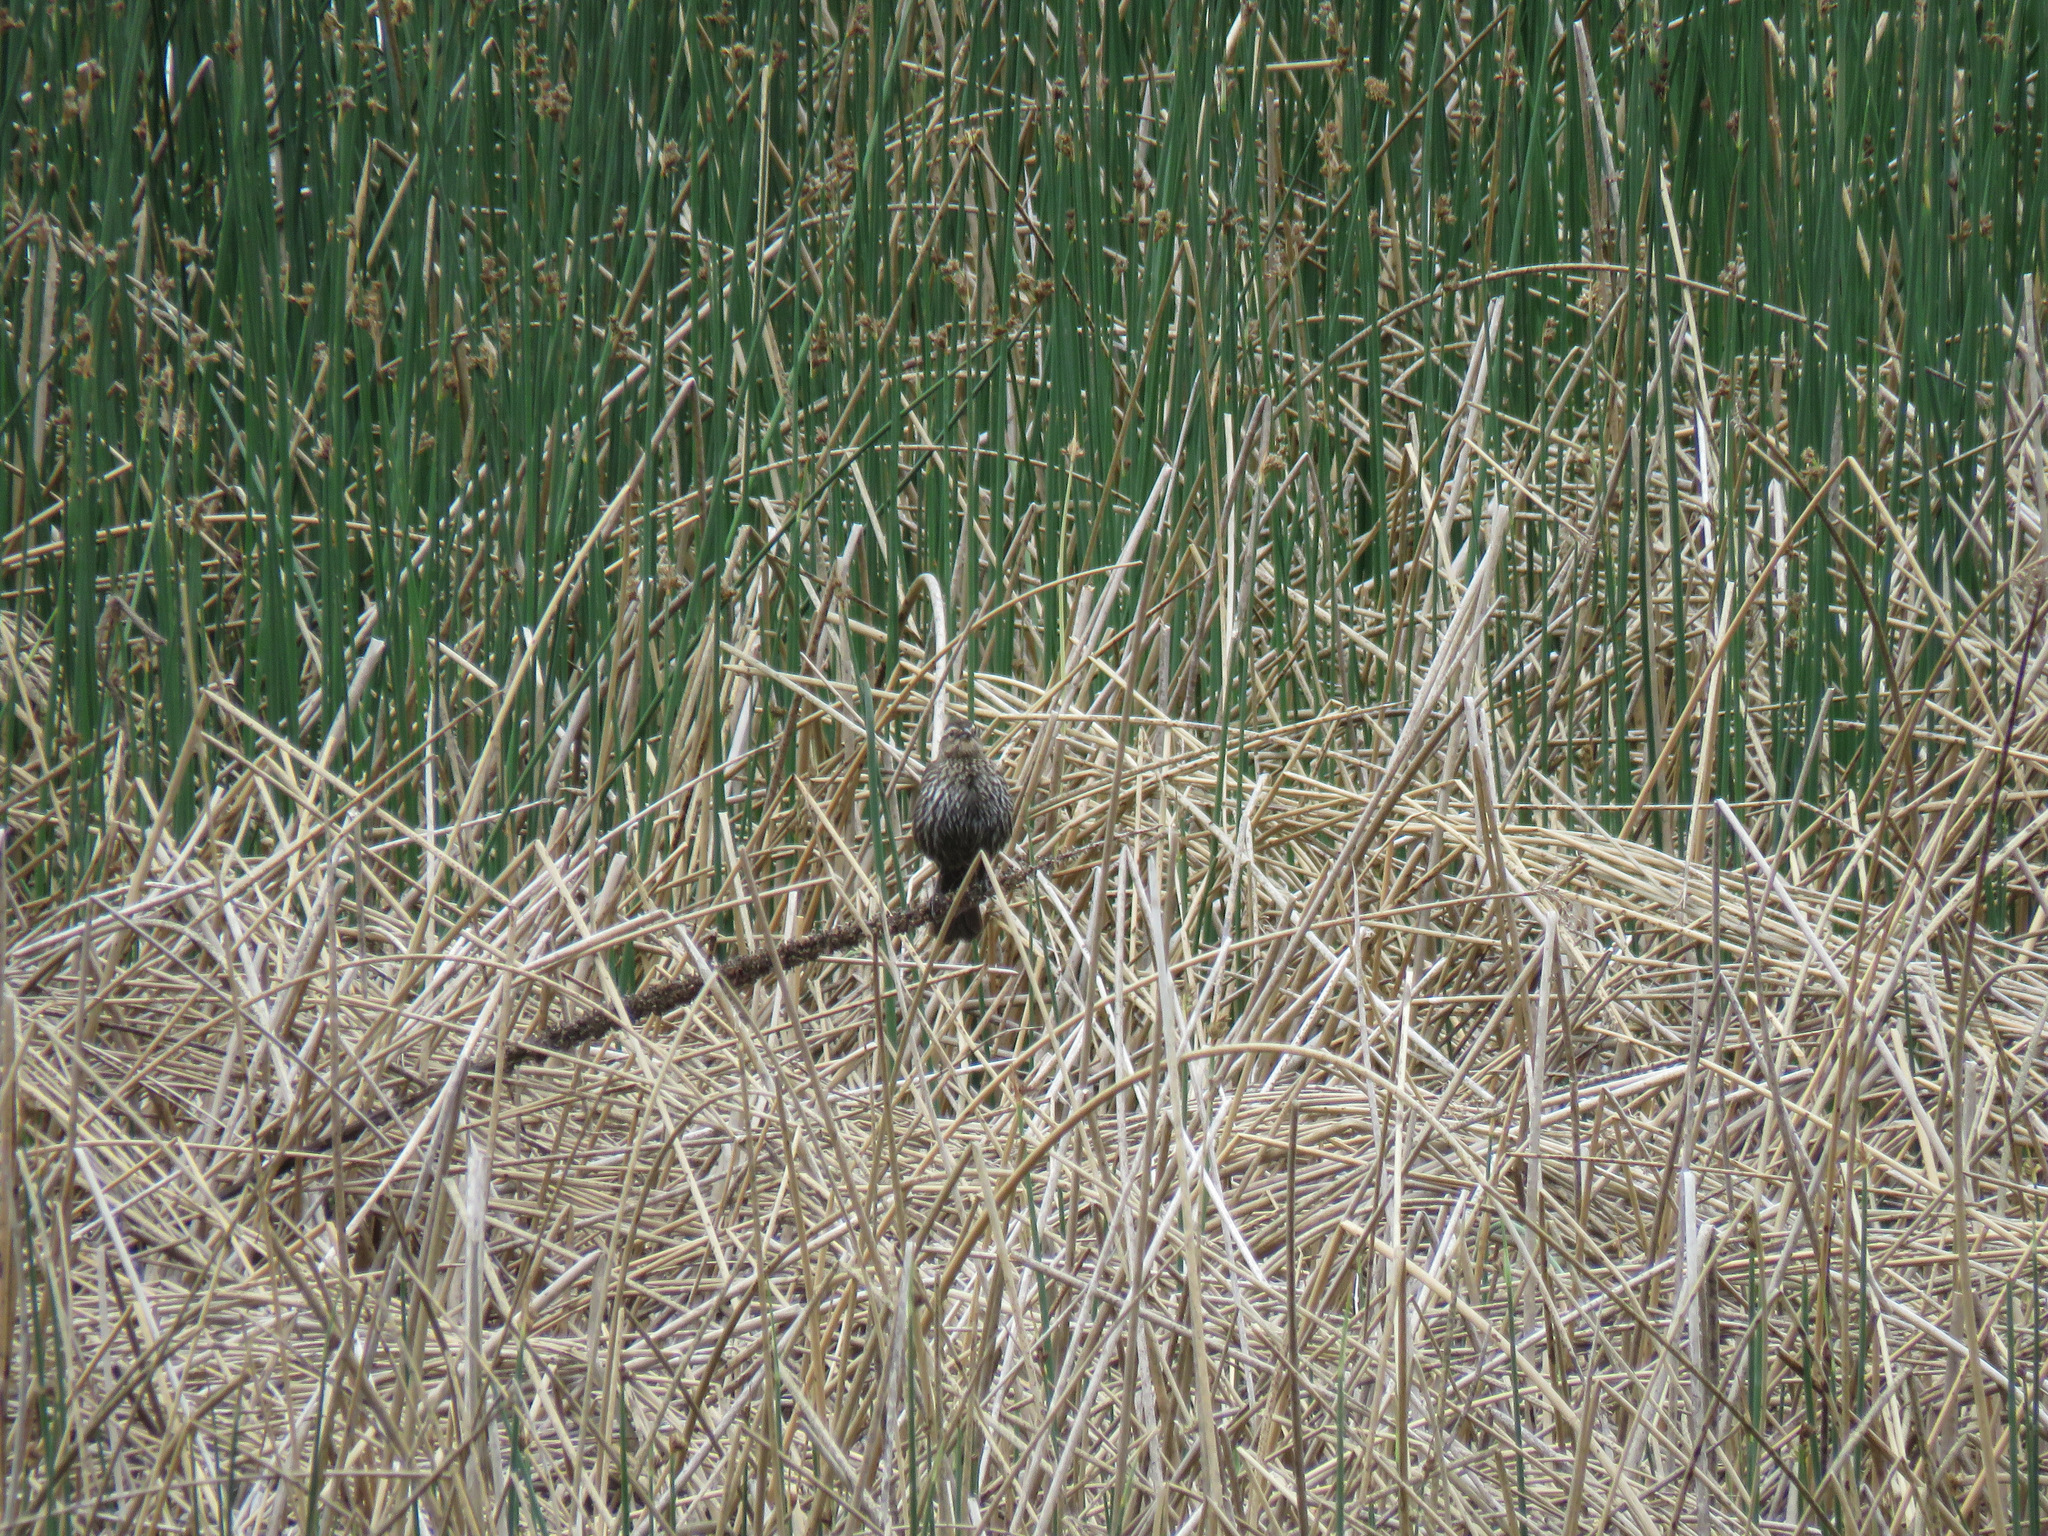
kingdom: Animalia
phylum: Chordata
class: Aves
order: Passeriformes
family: Icteridae
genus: Agelaius
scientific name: Agelaius phoeniceus
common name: Red-winged blackbird
